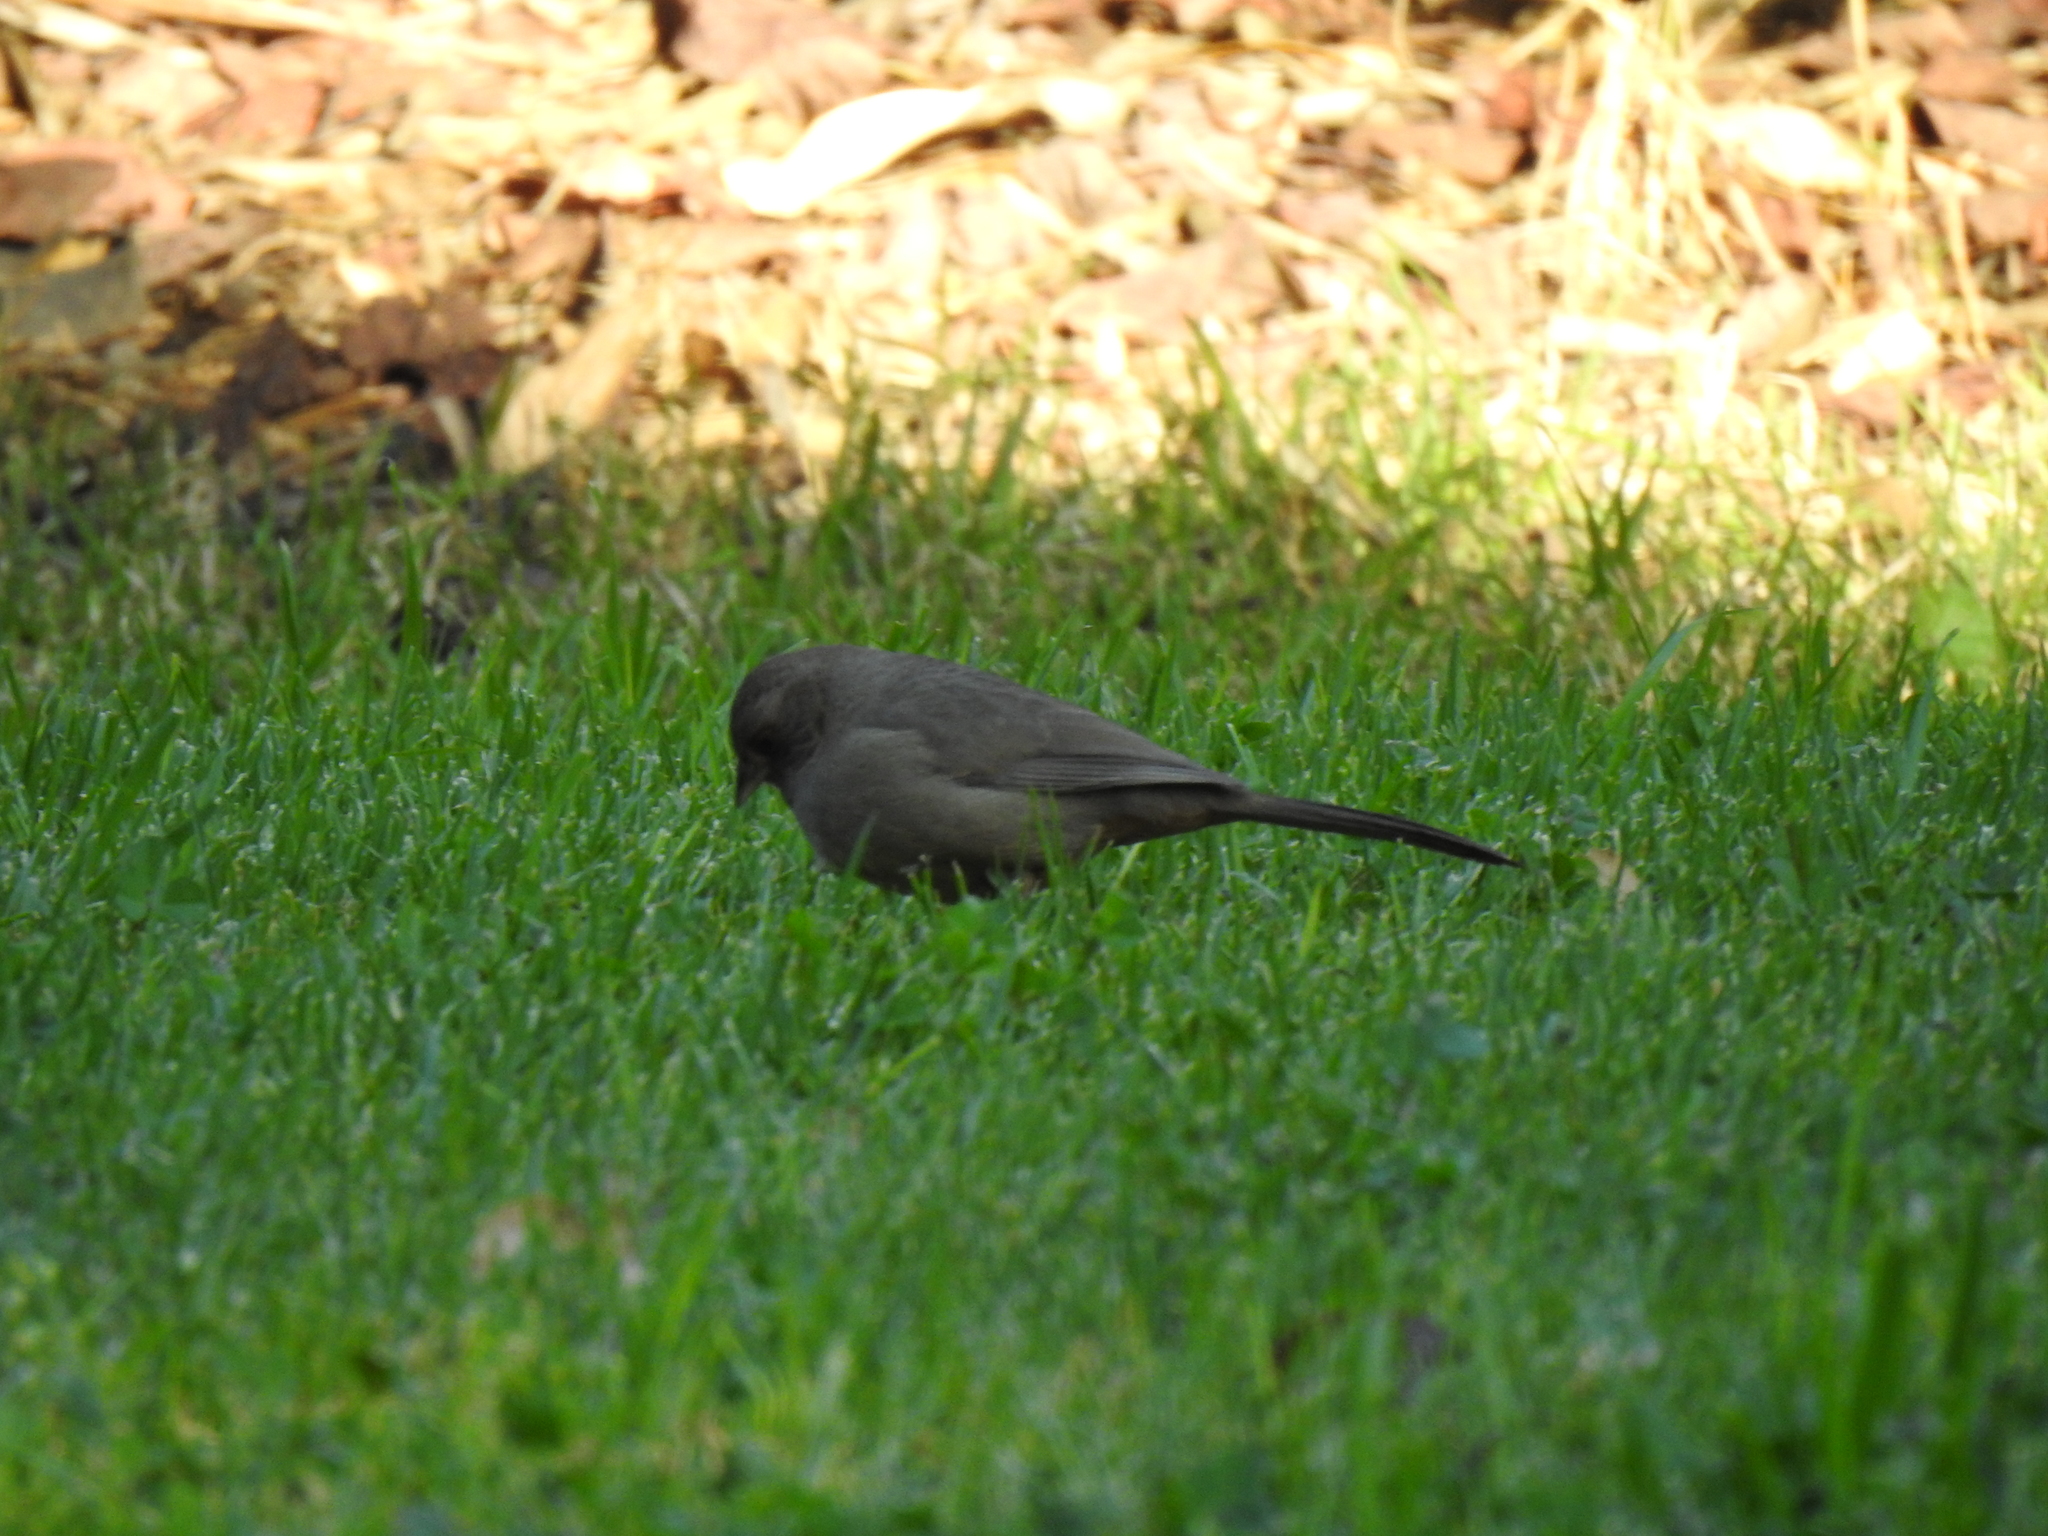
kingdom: Animalia
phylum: Chordata
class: Aves
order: Passeriformes
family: Passerellidae
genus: Melozone
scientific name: Melozone crissalis
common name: California towhee
